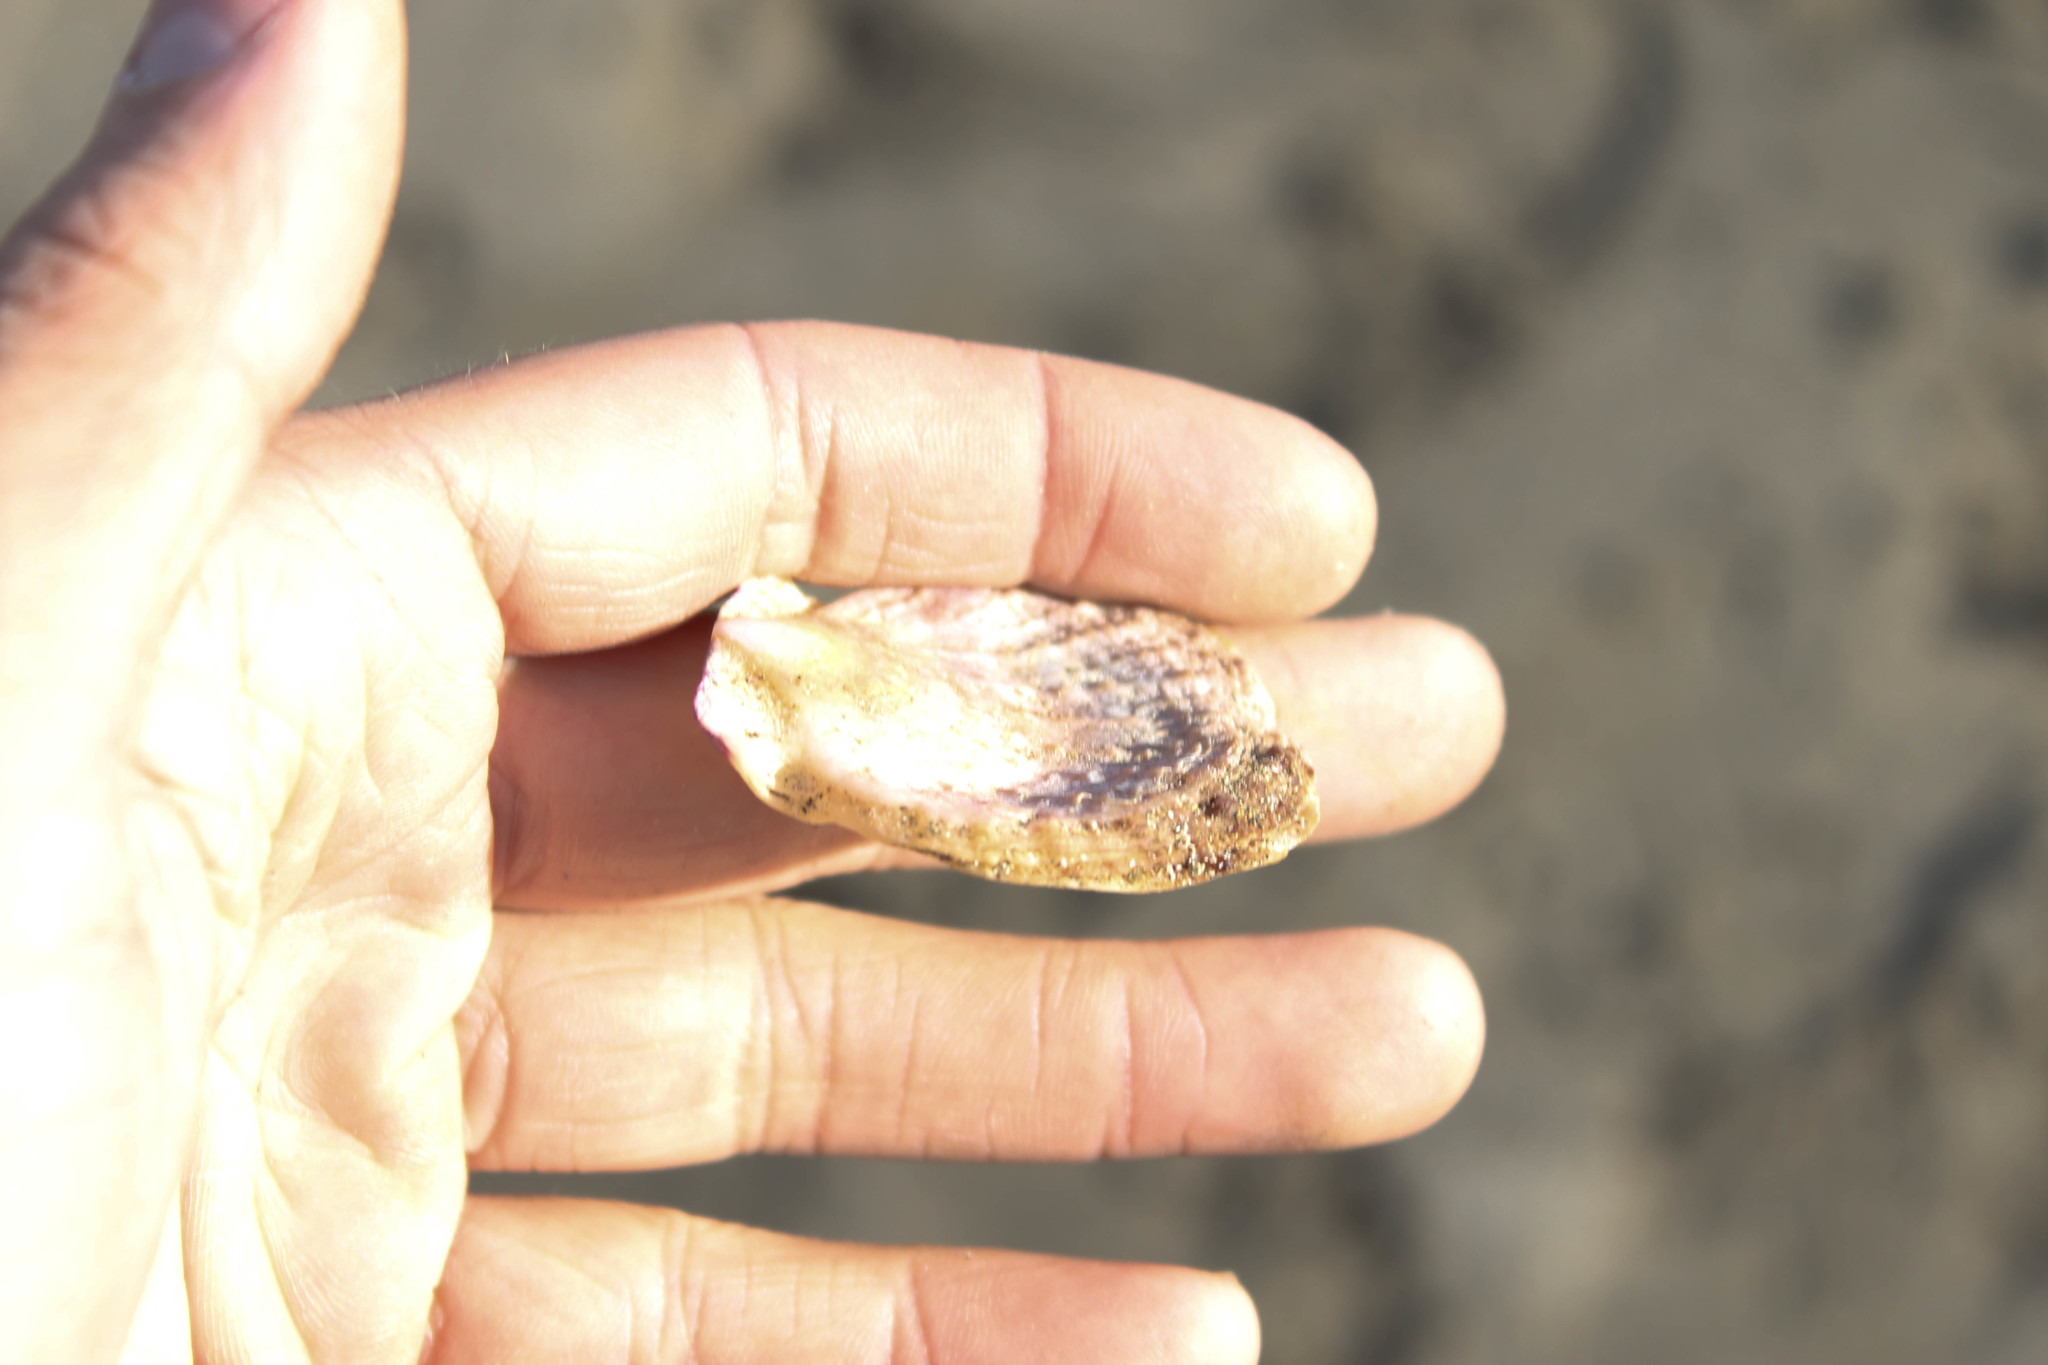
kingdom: Animalia
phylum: Mollusca
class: Bivalvia
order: Pectinida
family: Pectinidae
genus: Crassadoma
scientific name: Crassadoma gigantea
